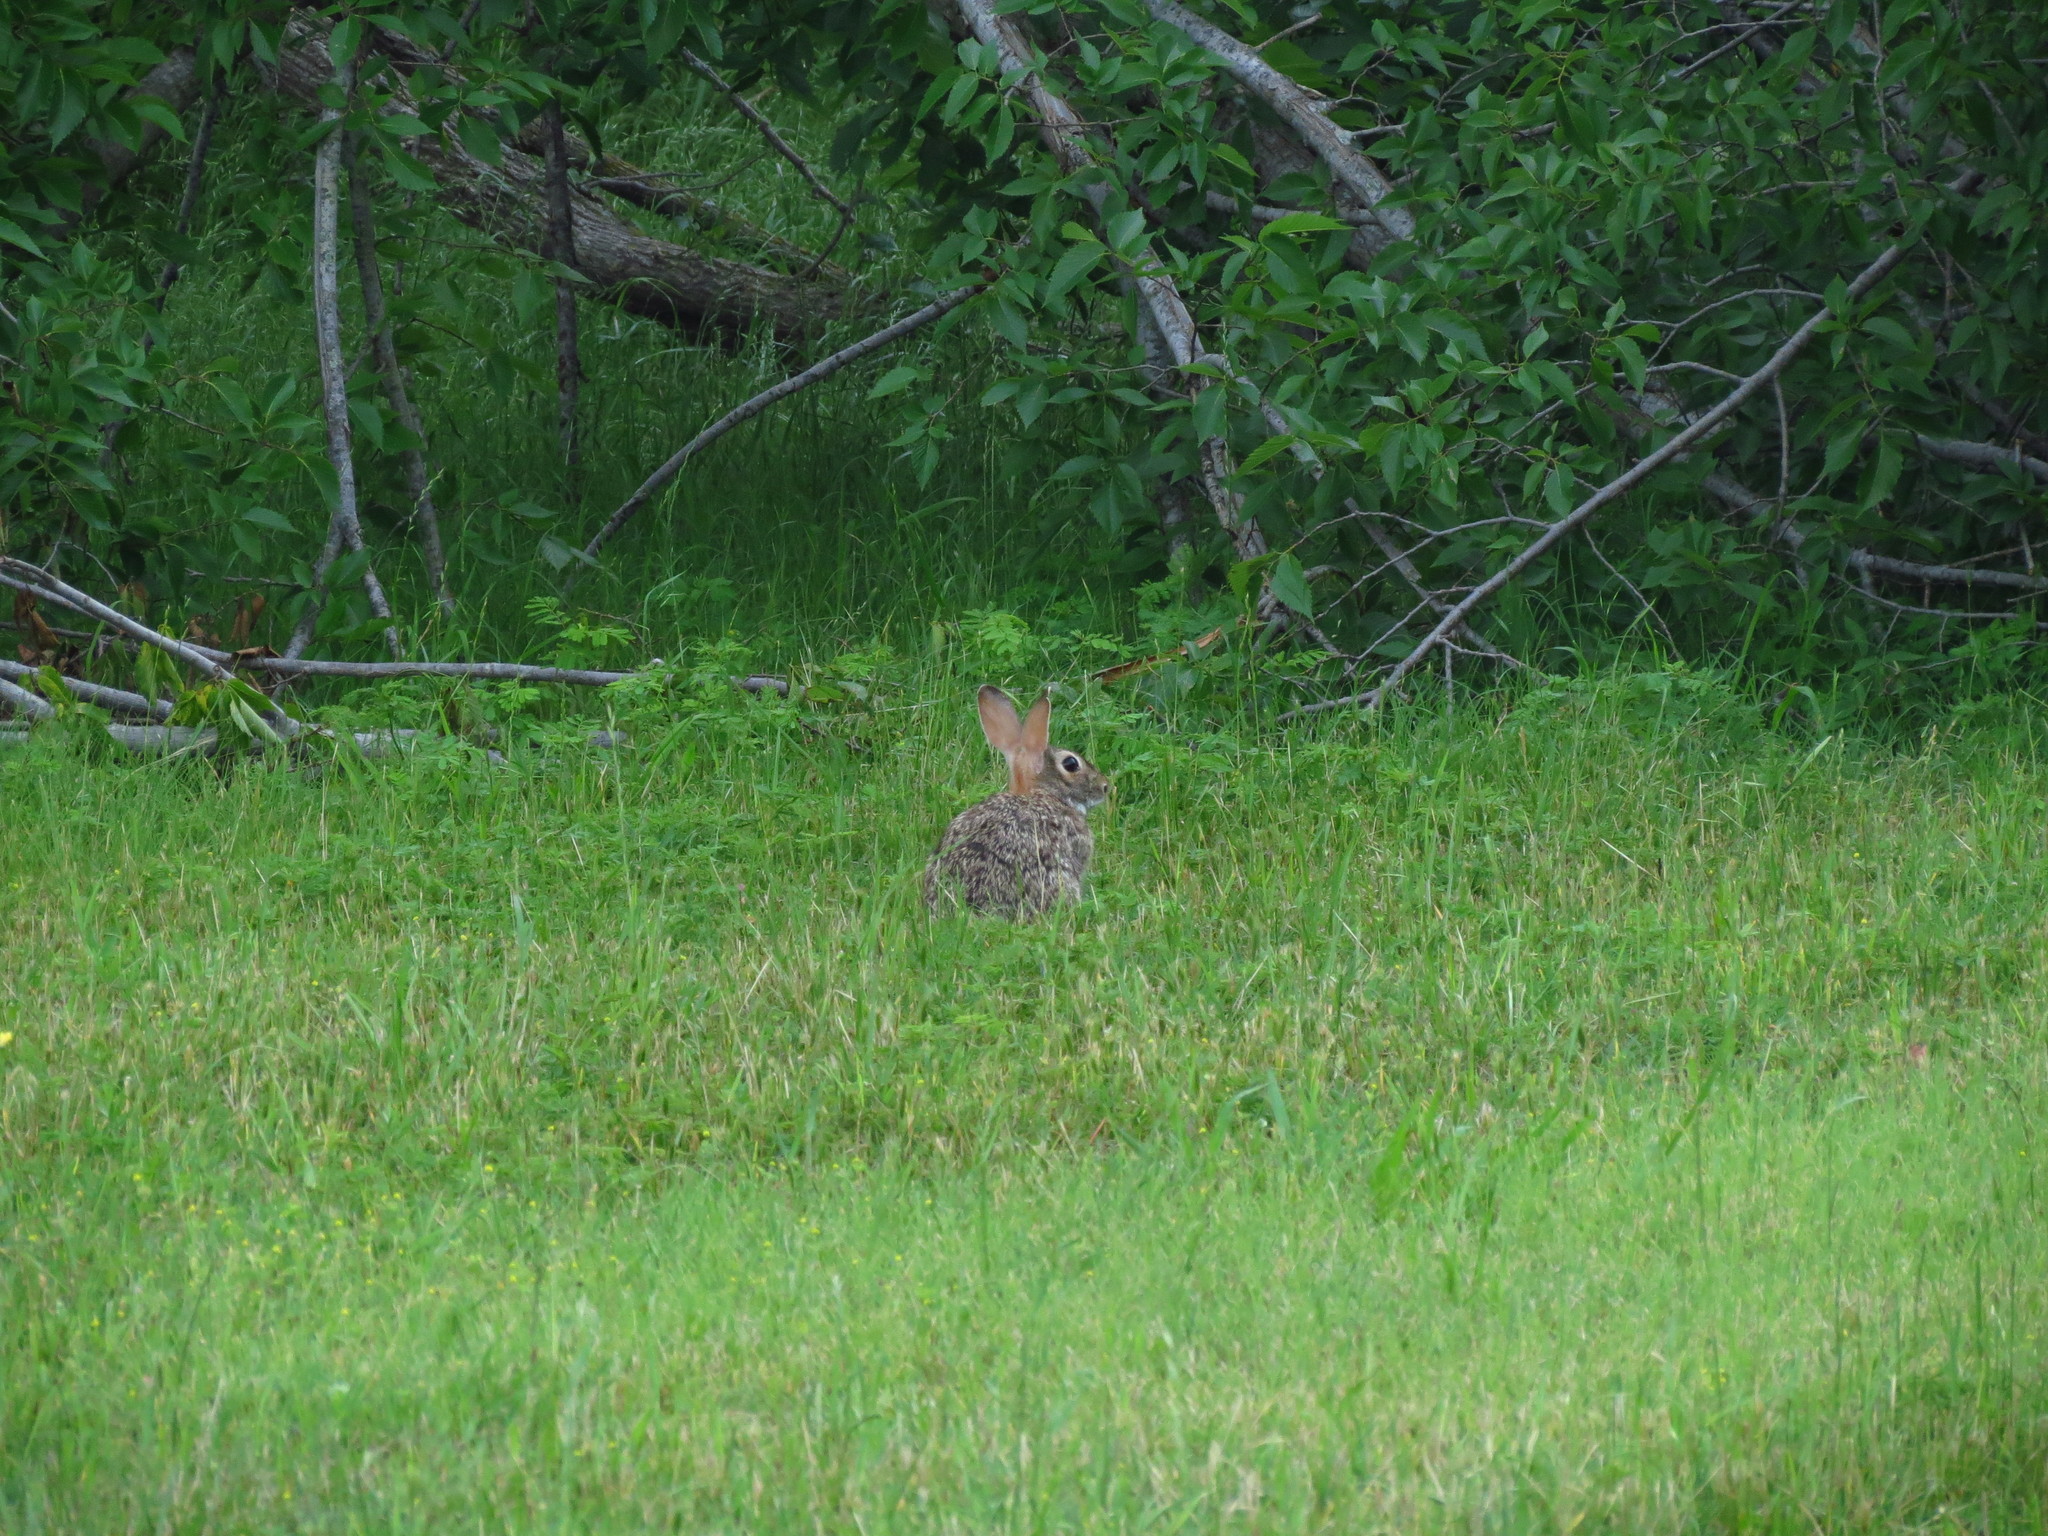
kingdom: Animalia
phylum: Chordata
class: Mammalia
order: Lagomorpha
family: Leporidae
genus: Sylvilagus
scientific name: Sylvilagus floridanus
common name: Eastern cottontail
